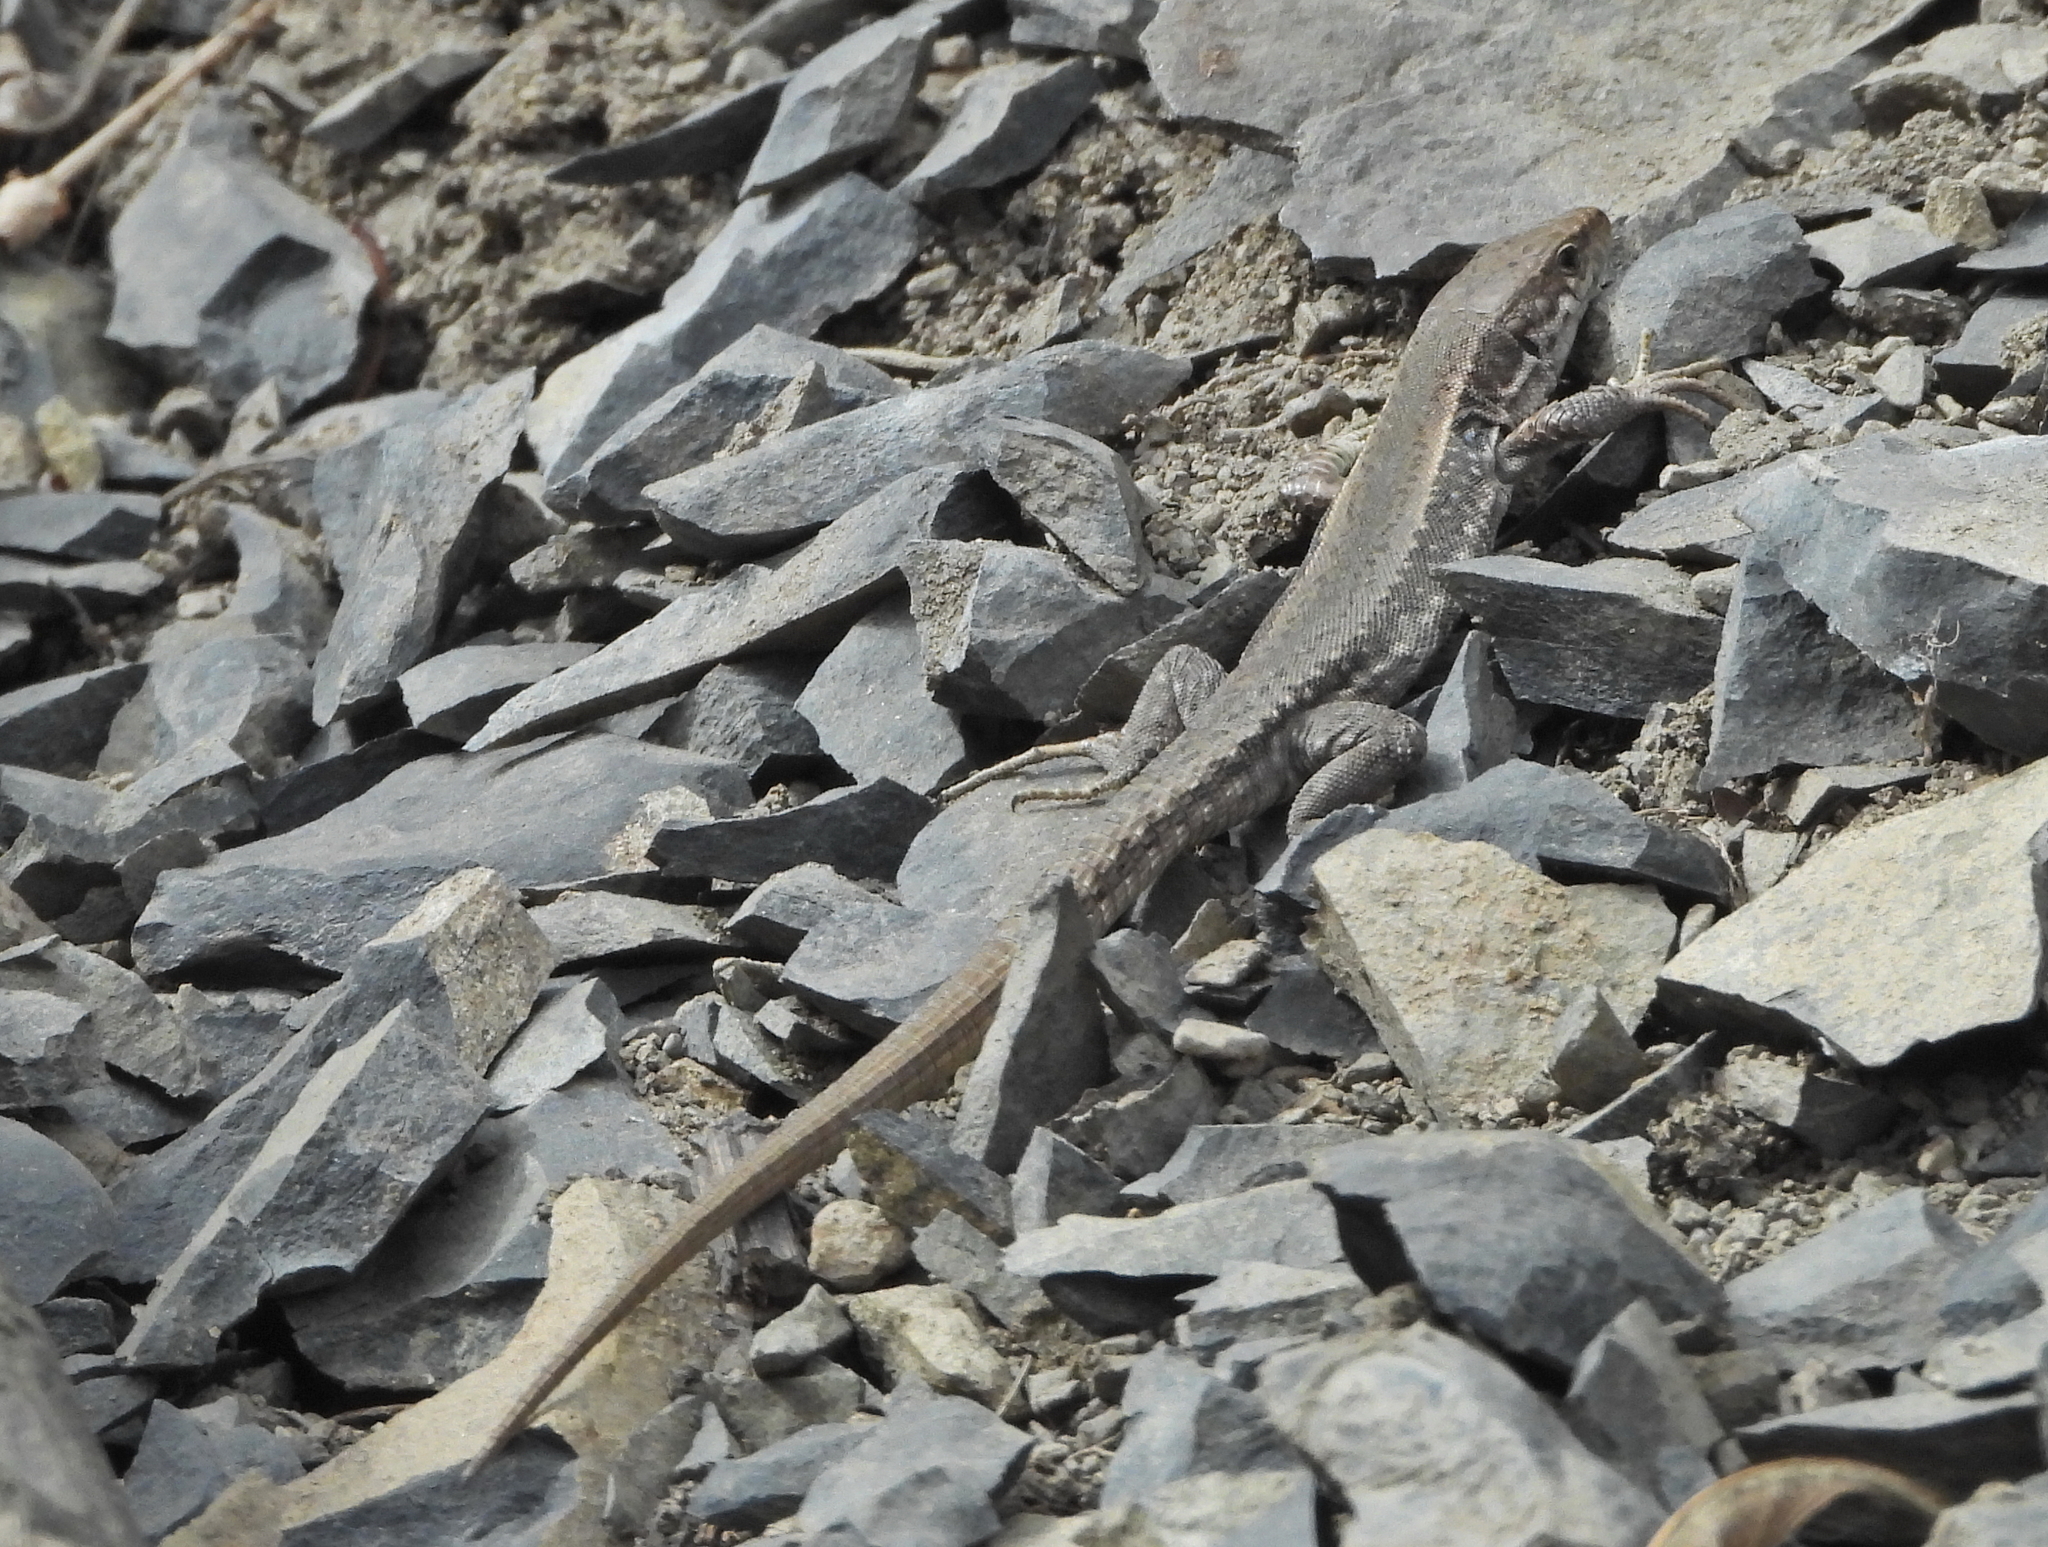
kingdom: Animalia
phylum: Chordata
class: Squamata
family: Lacertidae
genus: Darevskia
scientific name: Darevskia caucasica
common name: Caucasian llzard
